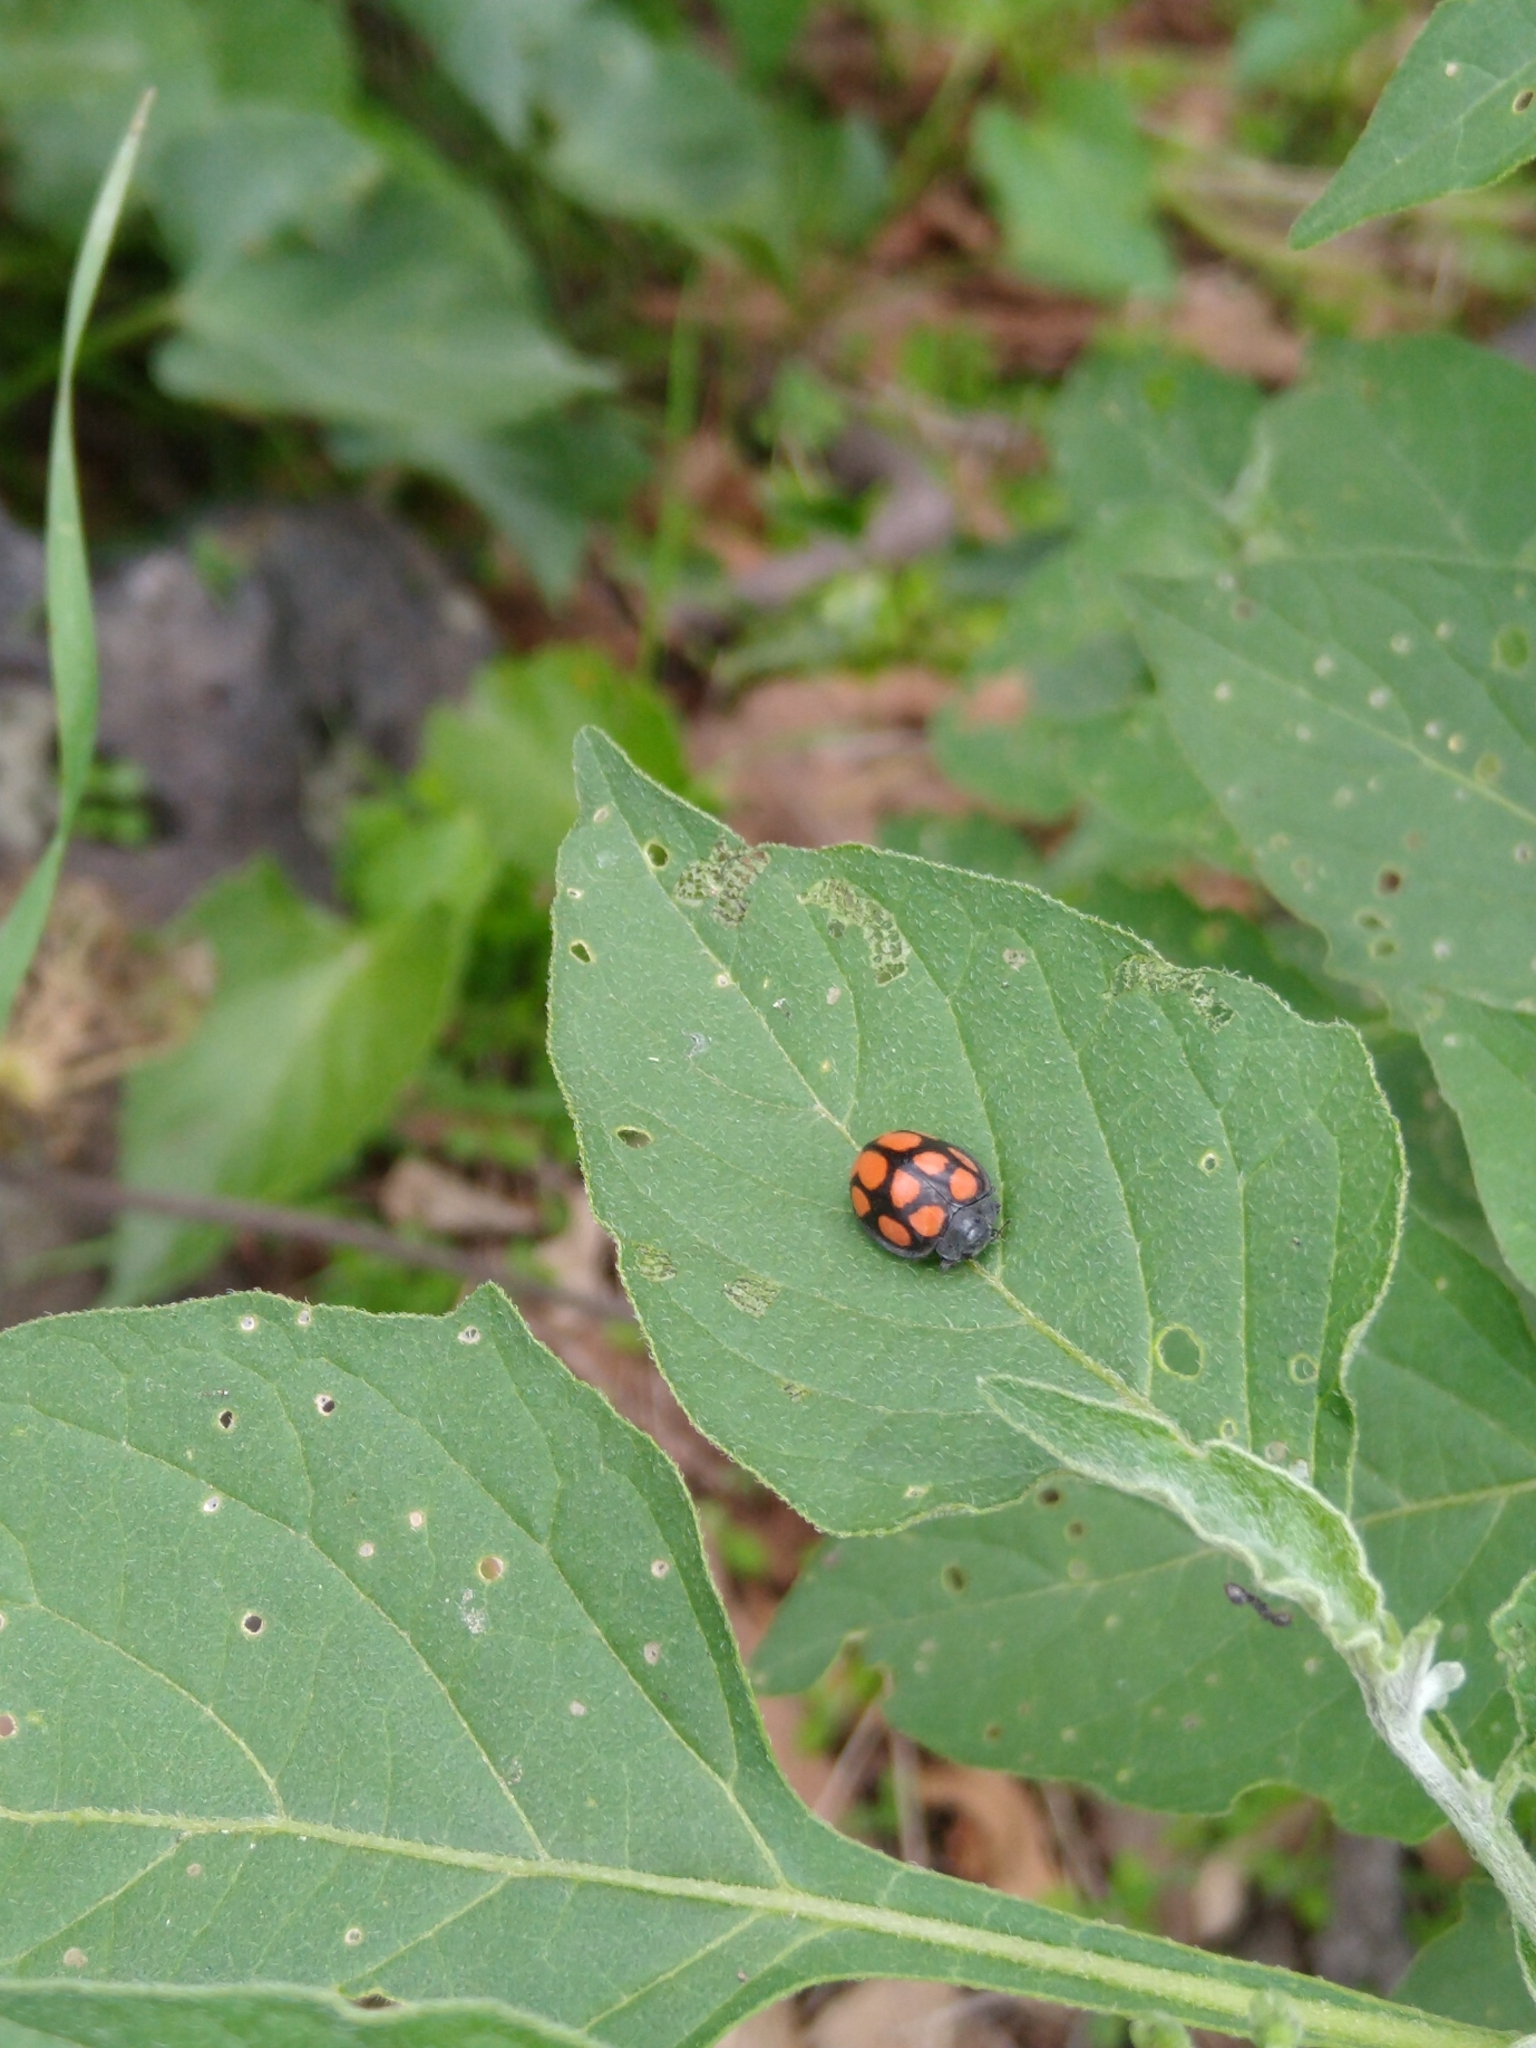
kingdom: Animalia
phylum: Arthropoda
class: Insecta
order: Coleoptera
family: Coccinellidae
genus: Epilachna
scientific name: Epilachna
